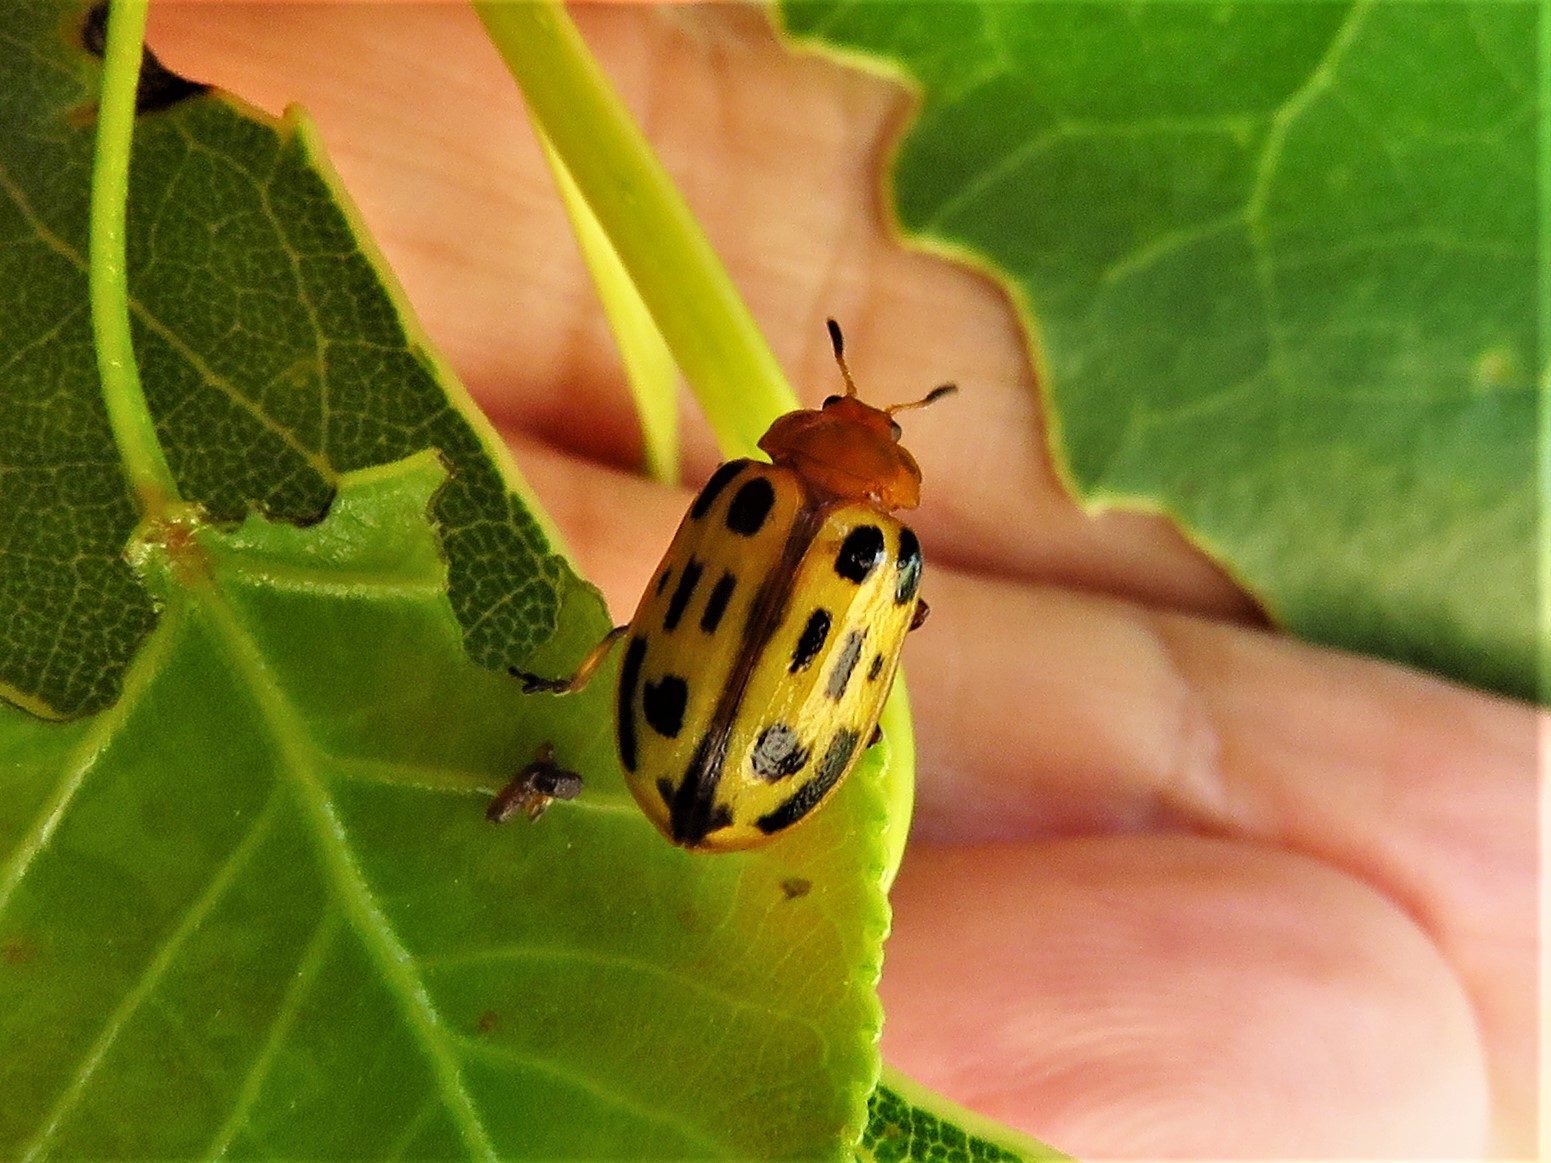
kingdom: Animalia
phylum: Arthropoda
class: Insecta
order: Coleoptera
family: Chrysomelidae
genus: Chrysomela
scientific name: Chrysomela texana
